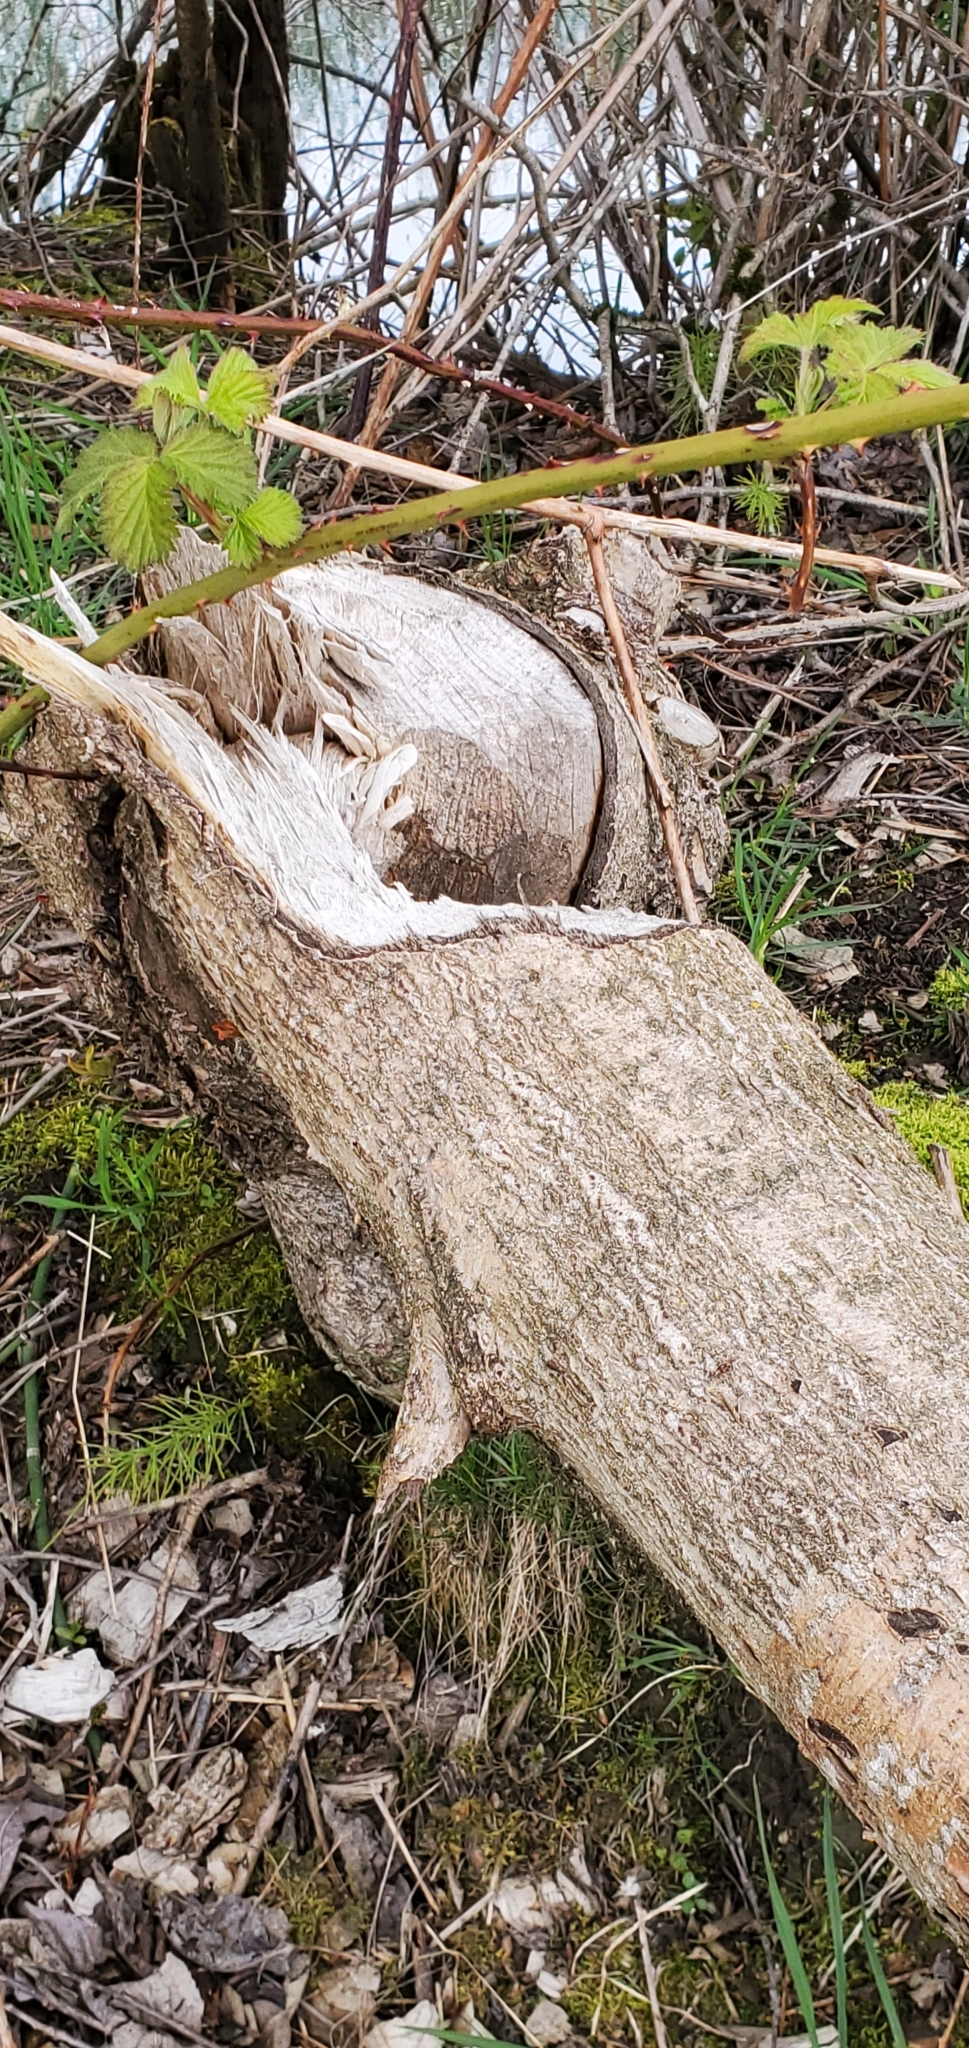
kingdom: Animalia
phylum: Chordata
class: Mammalia
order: Rodentia
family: Castoridae
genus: Castor
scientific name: Castor canadensis
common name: American beaver
